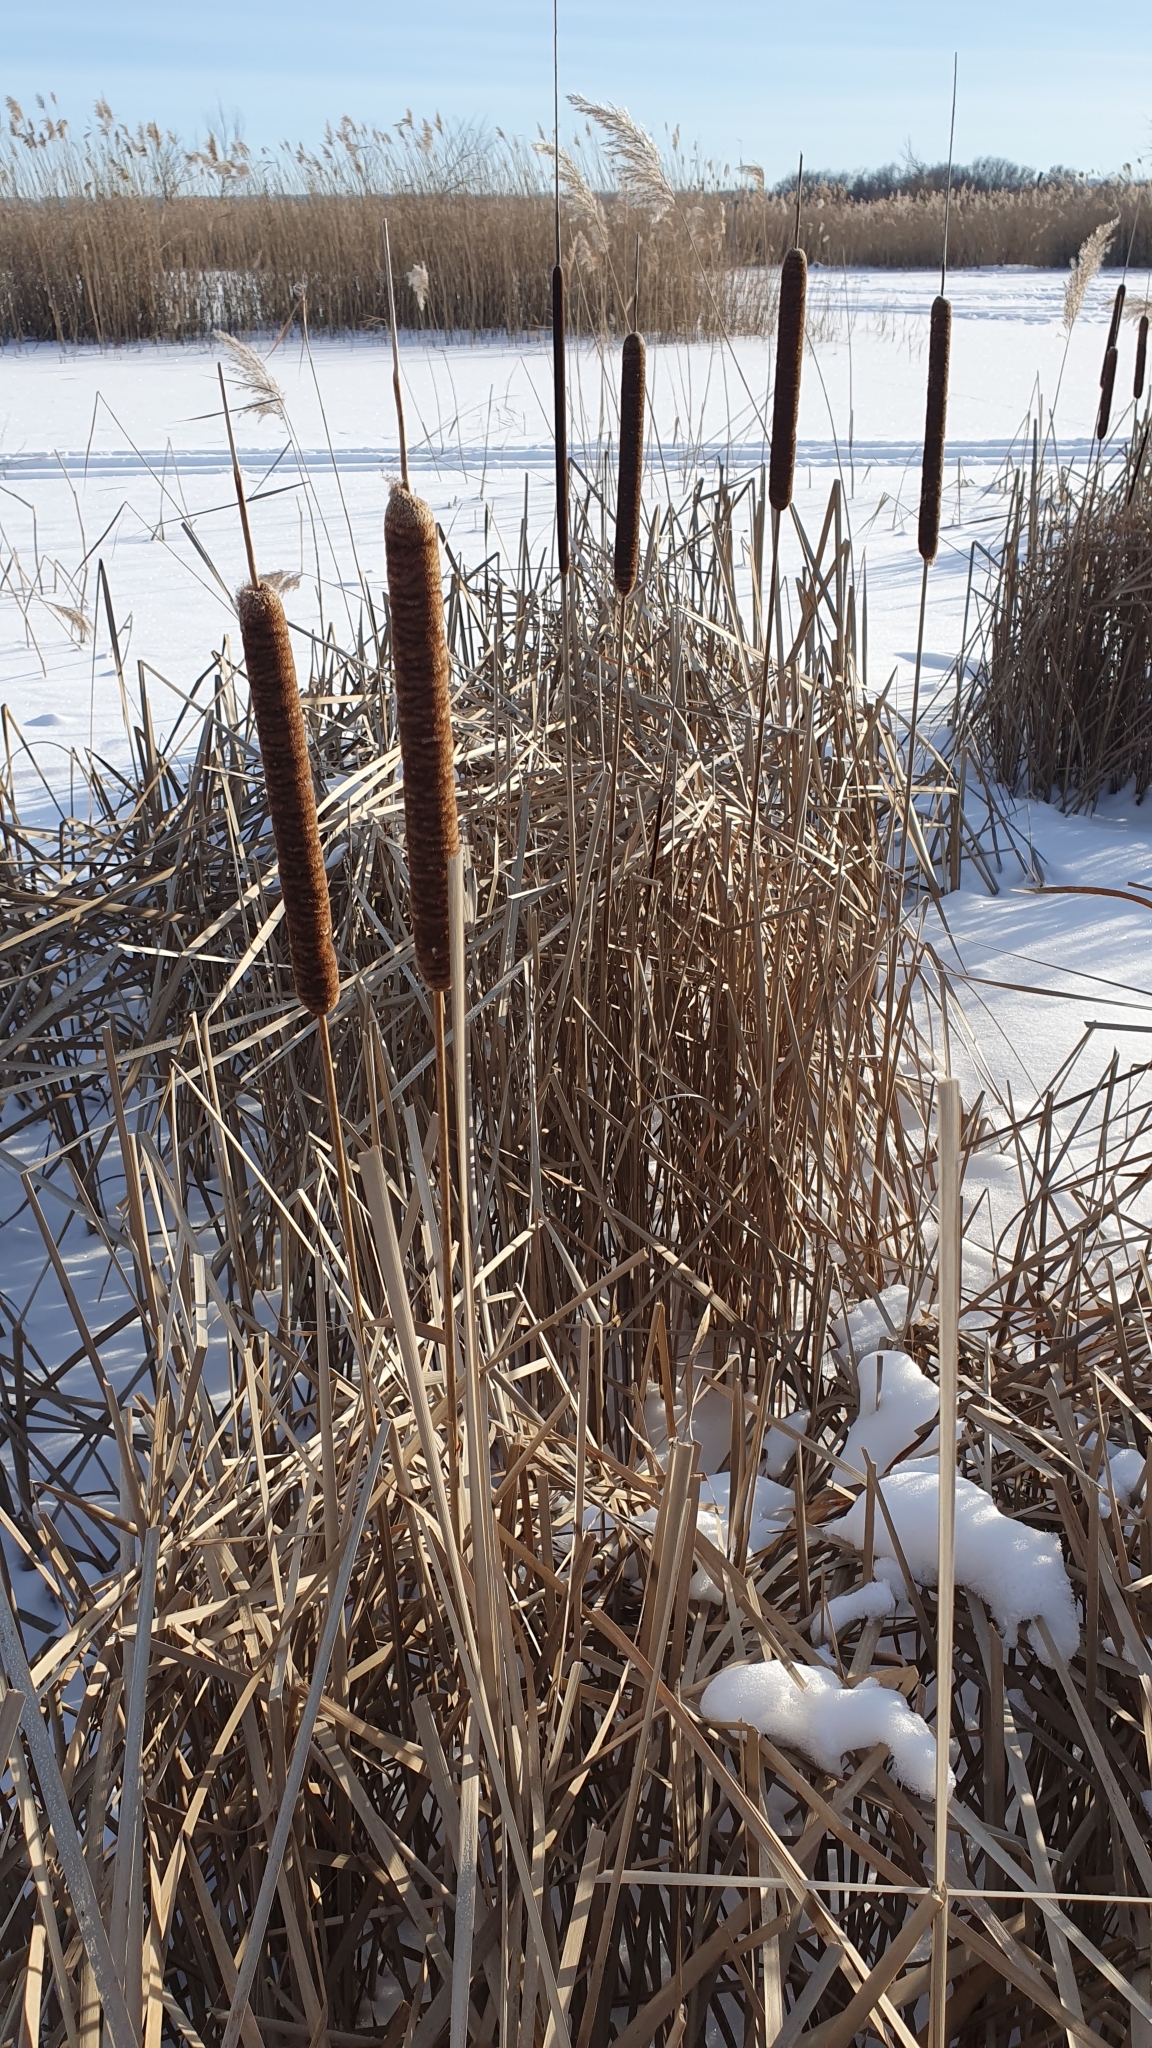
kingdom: Plantae
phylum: Tracheophyta
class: Liliopsida
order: Poales
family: Typhaceae
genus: Typha
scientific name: Typha angustifolia
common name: Lesser bulrush
